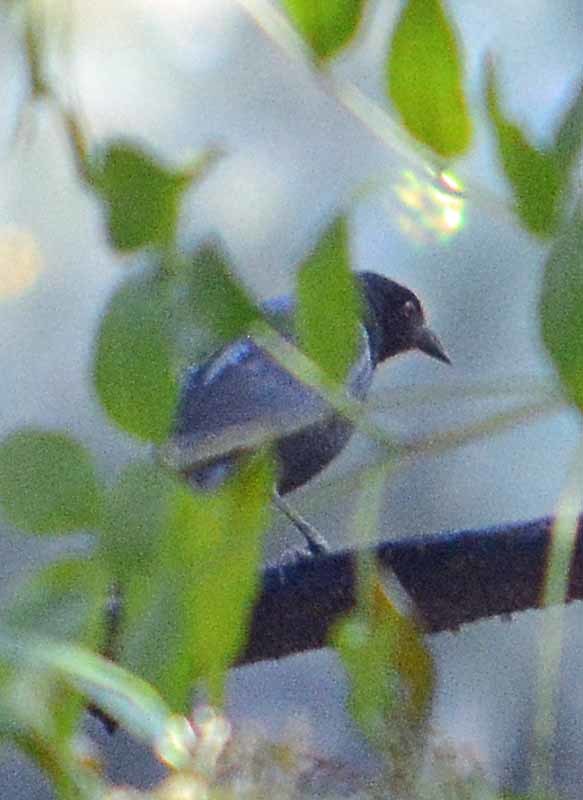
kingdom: Animalia
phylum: Chordata
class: Aves
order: Passeriformes
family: Icteridae
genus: Molothrus
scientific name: Molothrus aeneus
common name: Bronzed cowbird
